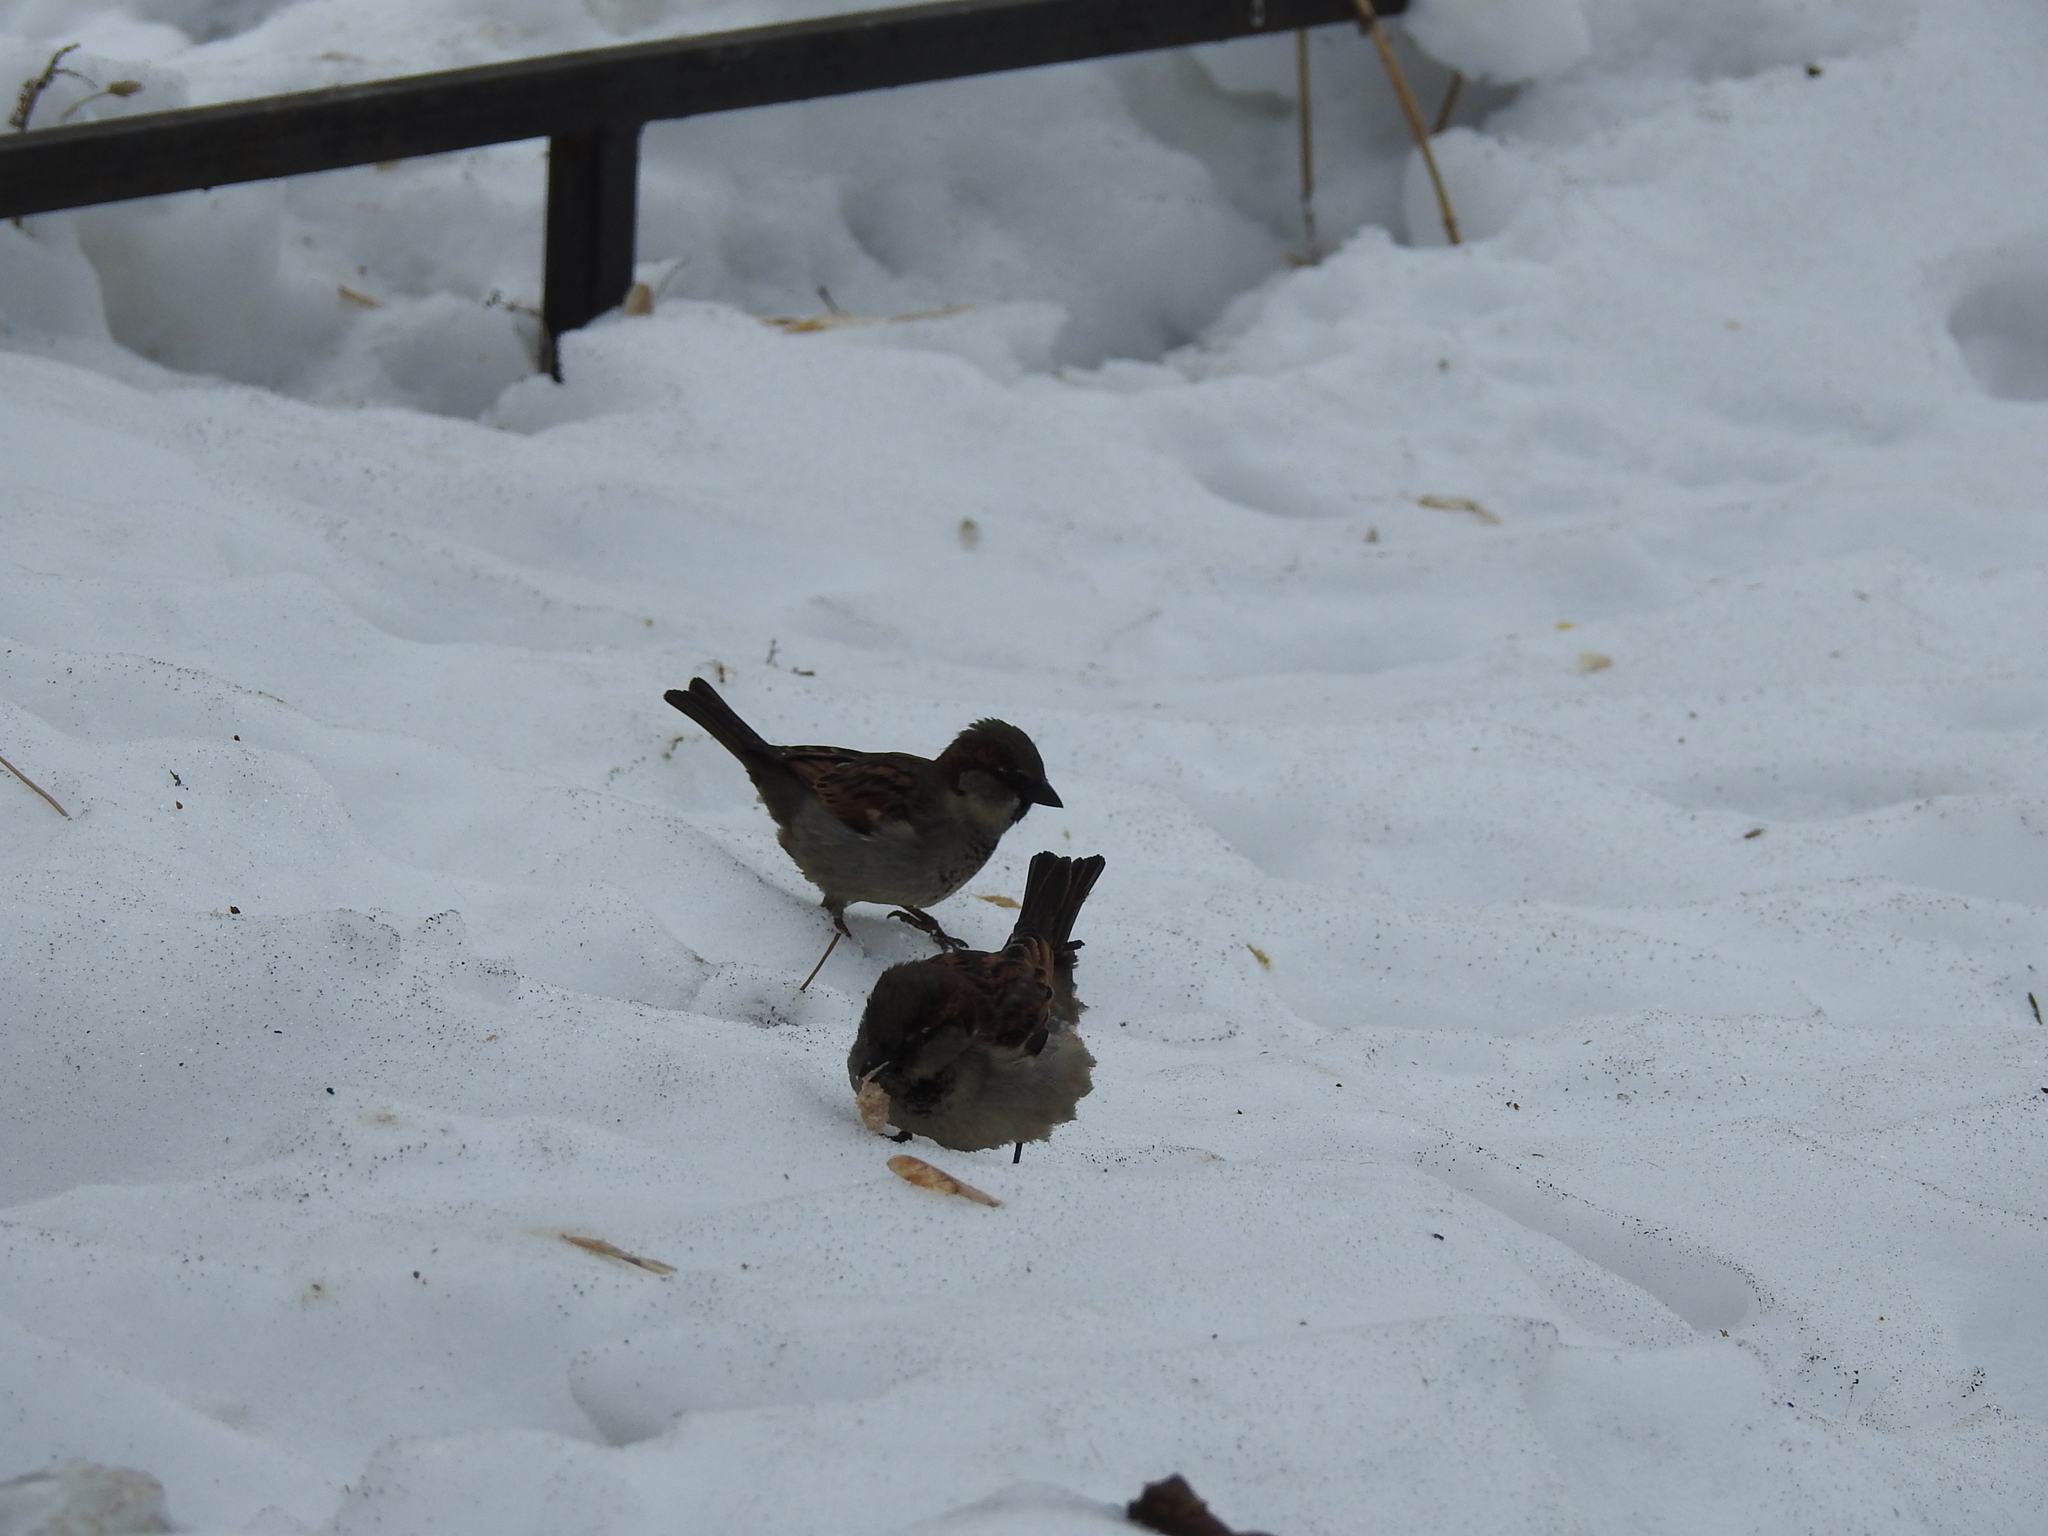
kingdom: Animalia
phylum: Chordata
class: Aves
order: Passeriformes
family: Passeridae
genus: Passer
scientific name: Passer domesticus
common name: House sparrow
